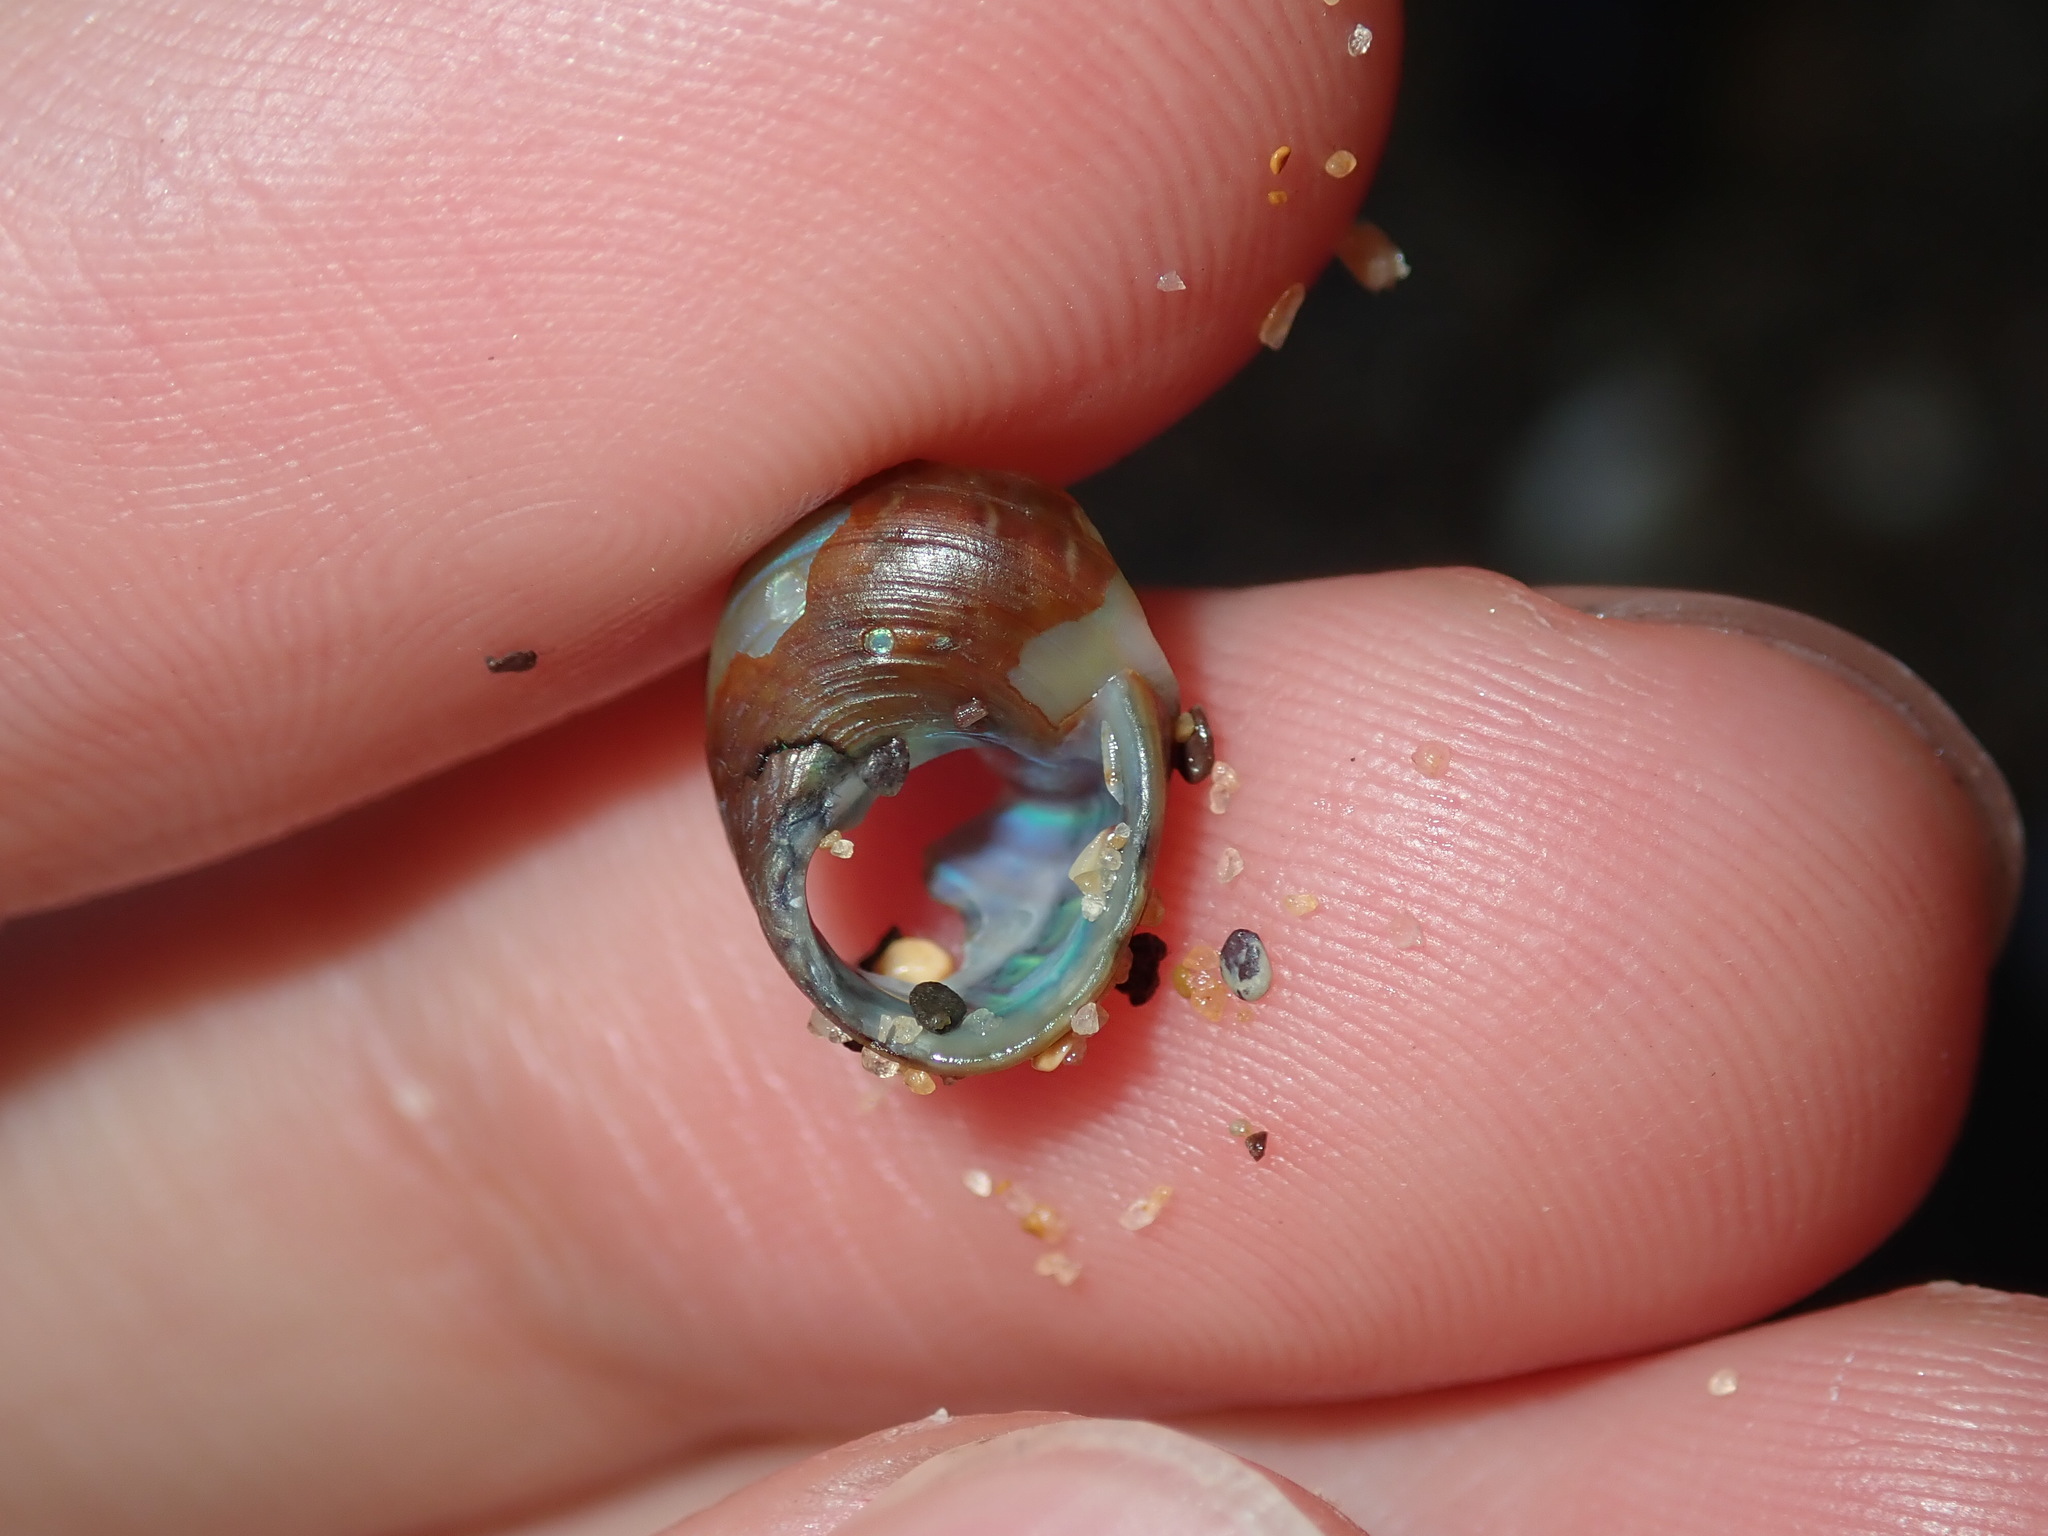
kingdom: Animalia
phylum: Mollusca
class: Gastropoda
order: Trochida
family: Trochidae
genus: Phasianotrochus
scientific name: Phasianotrochus eximius
